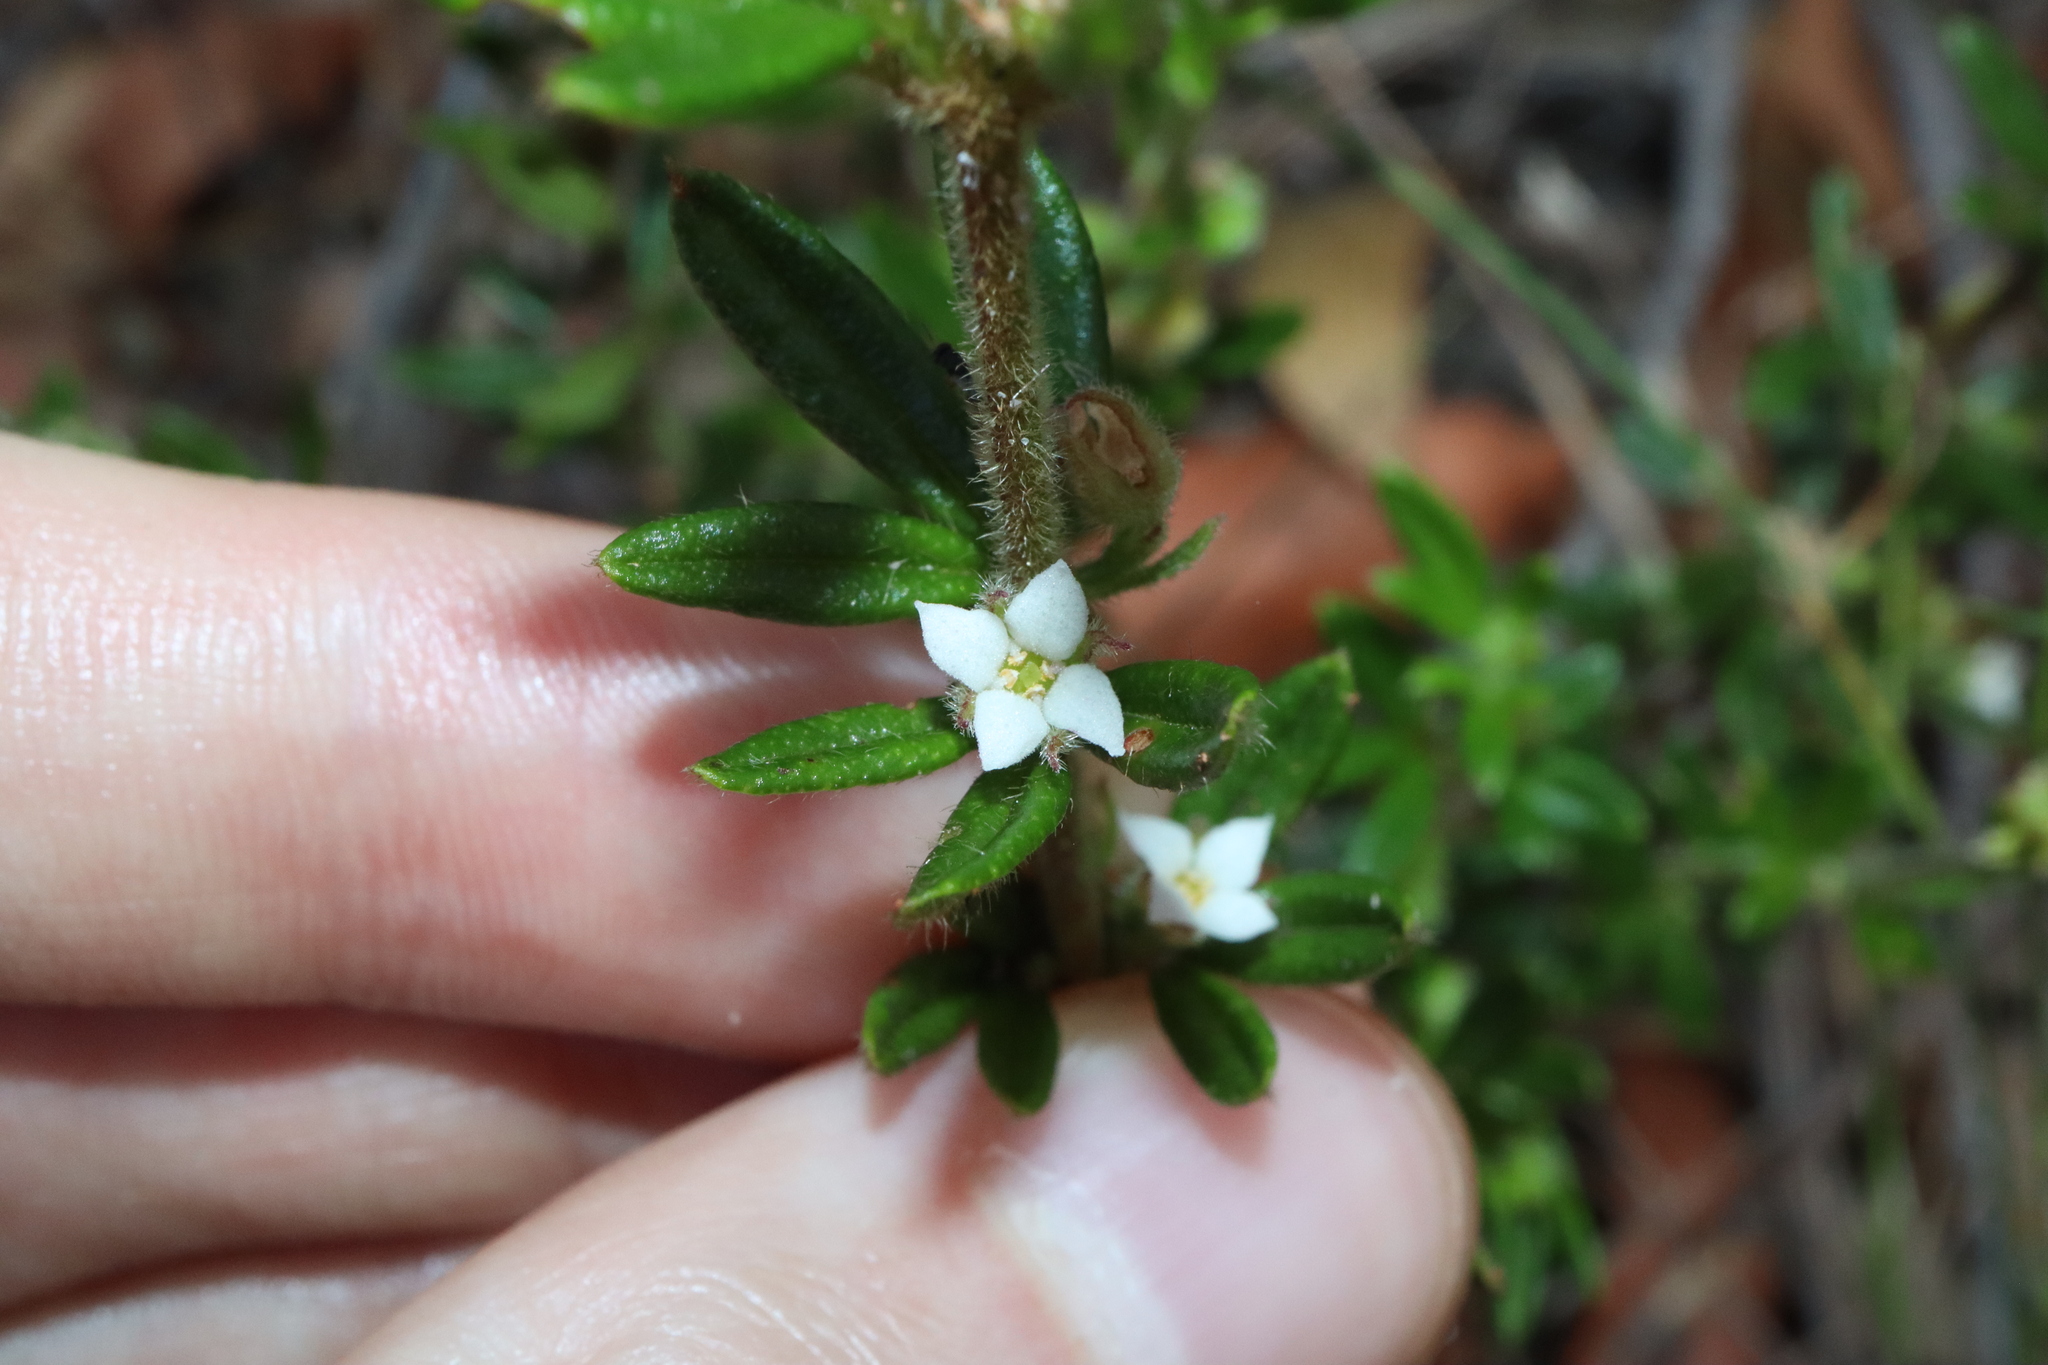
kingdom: Plantae
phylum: Tracheophyta
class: Magnoliopsida
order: Sapindales
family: Rutaceae
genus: Zieria
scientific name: Zieria pilosa
